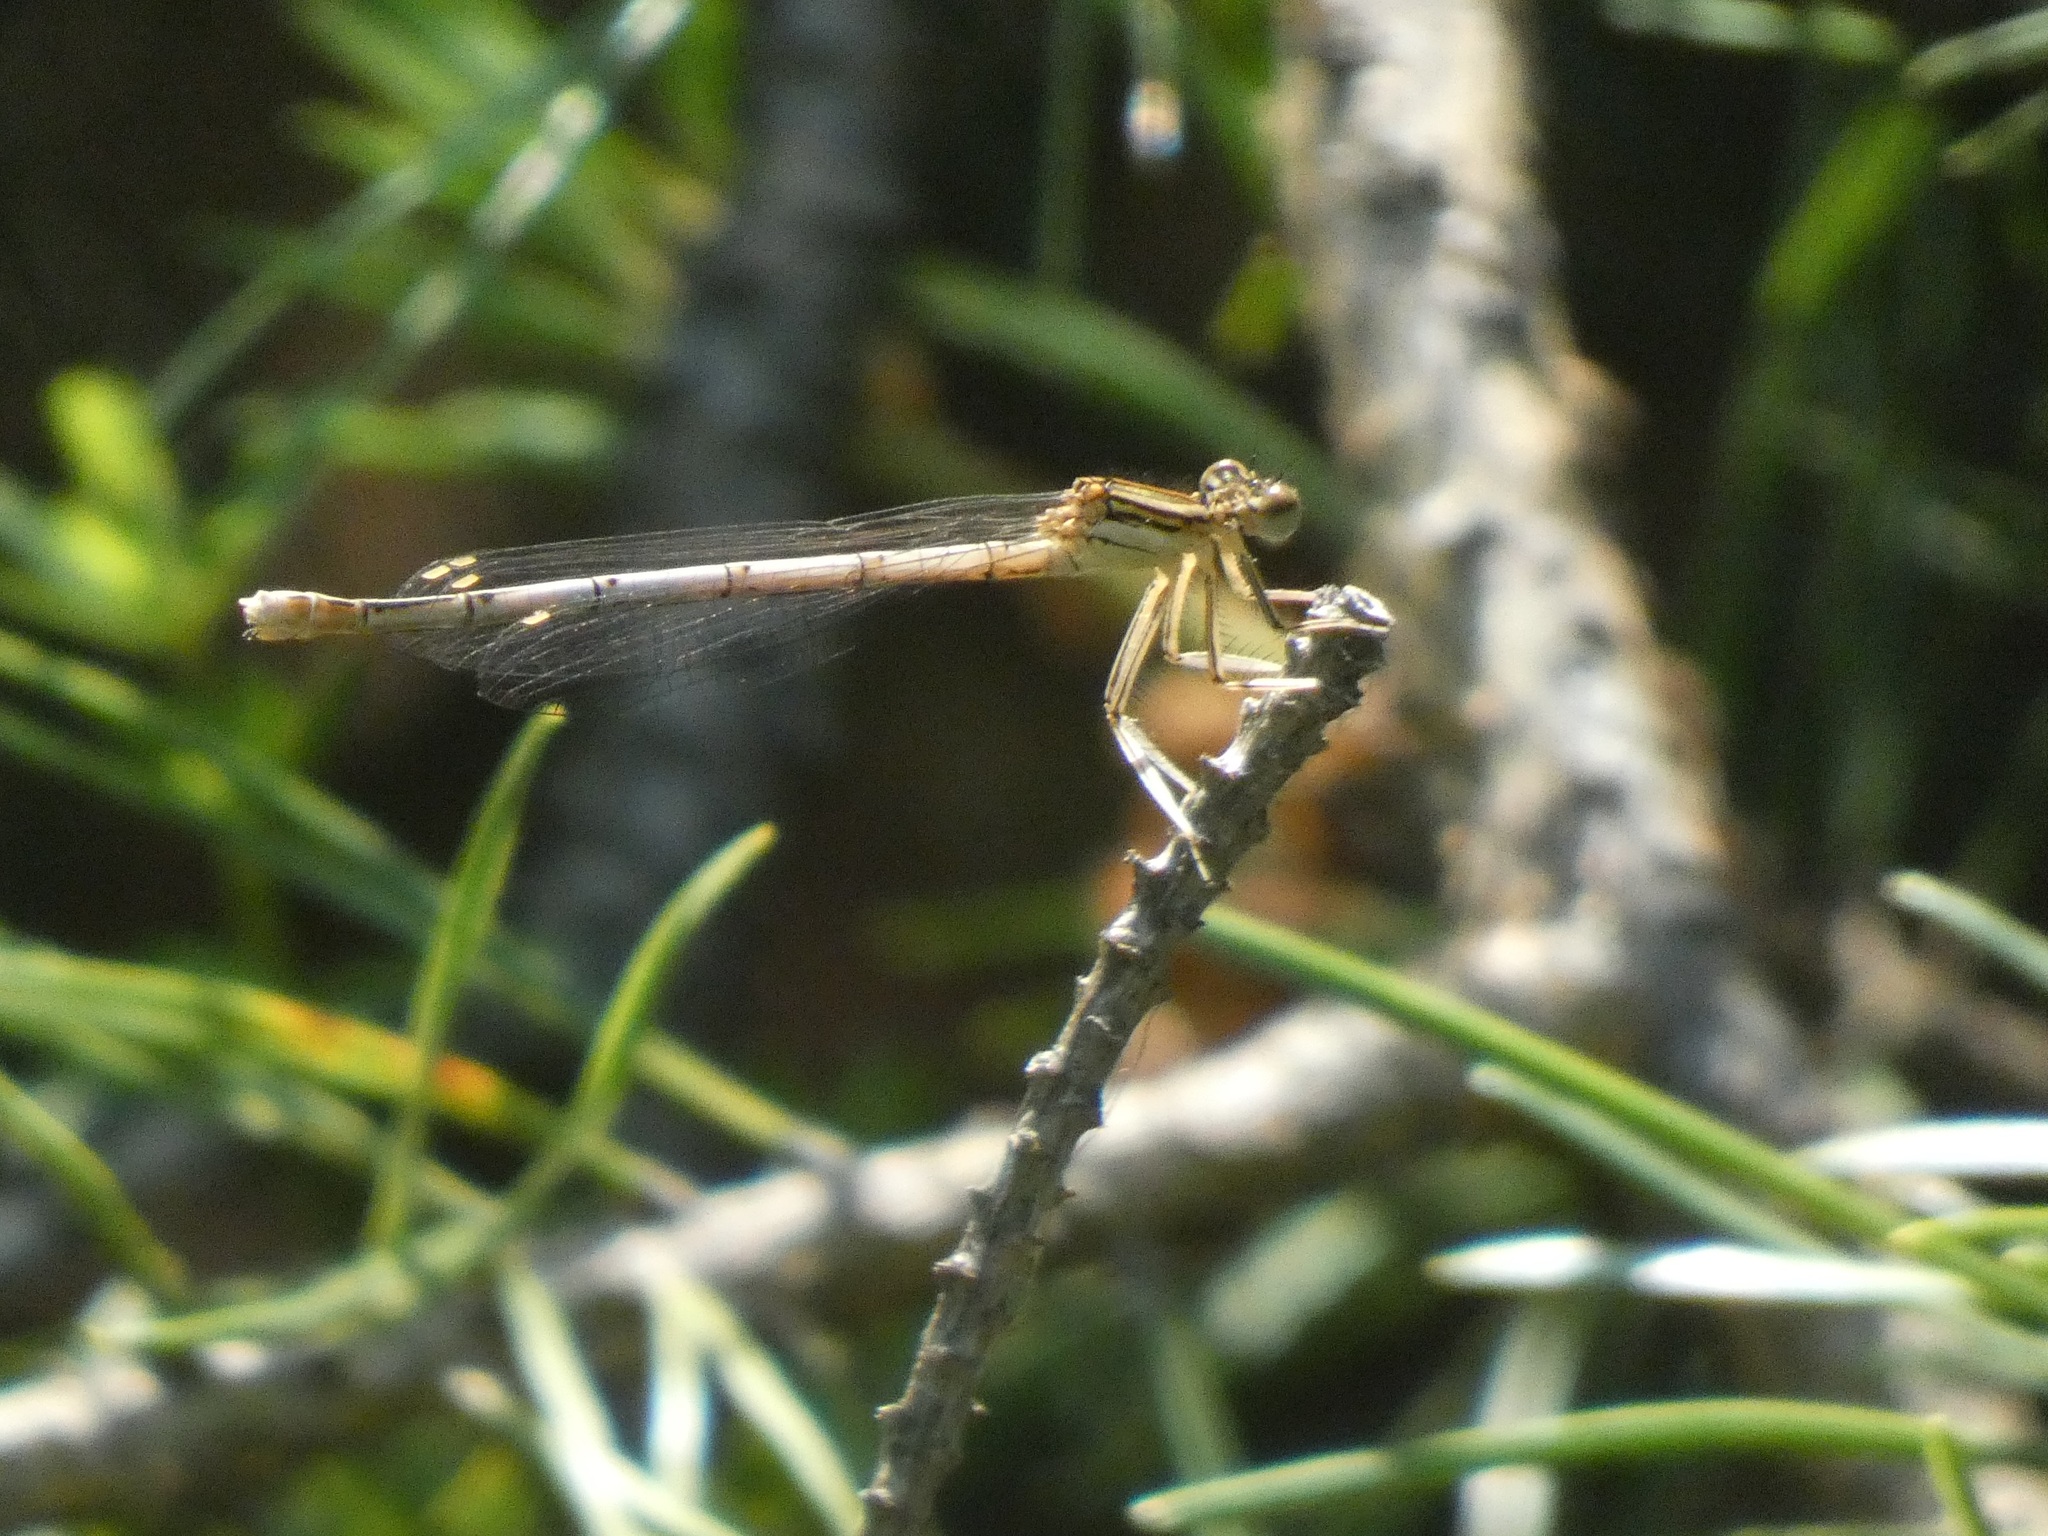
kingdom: Animalia
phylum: Arthropoda
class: Insecta
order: Odonata
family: Platycnemididae
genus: Platycnemis
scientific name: Platycnemis pennipes
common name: White-legged damselfly
